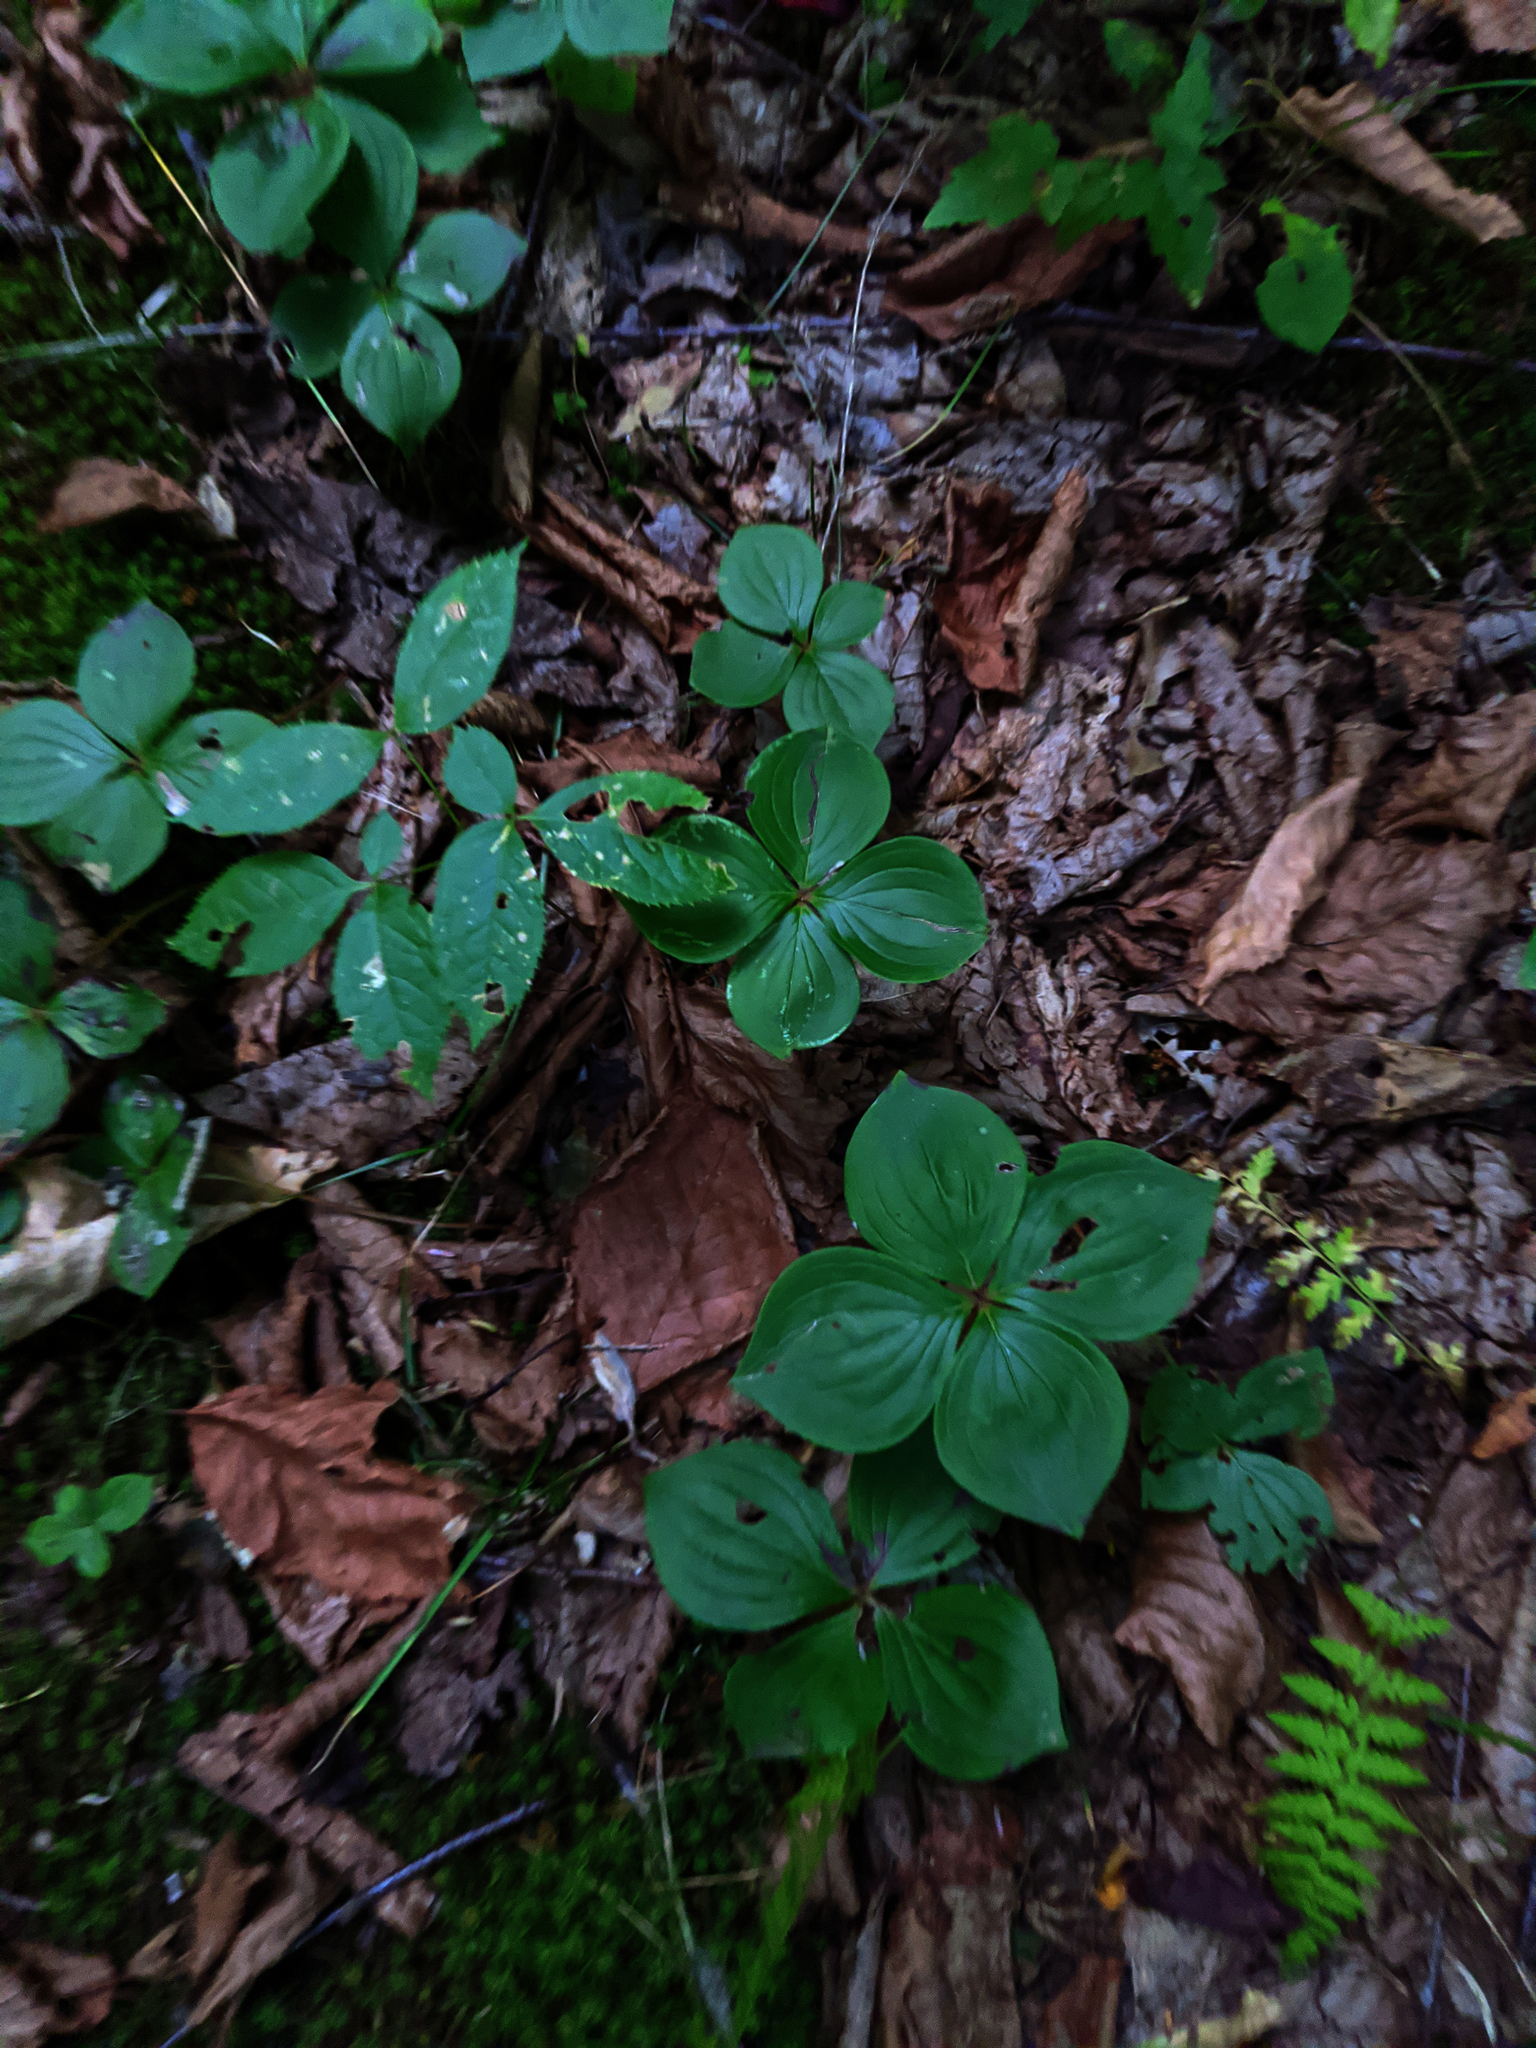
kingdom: Plantae
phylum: Tracheophyta
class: Magnoliopsida
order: Cornales
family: Cornaceae
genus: Cornus
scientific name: Cornus canadensis
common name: Creeping dogwood
